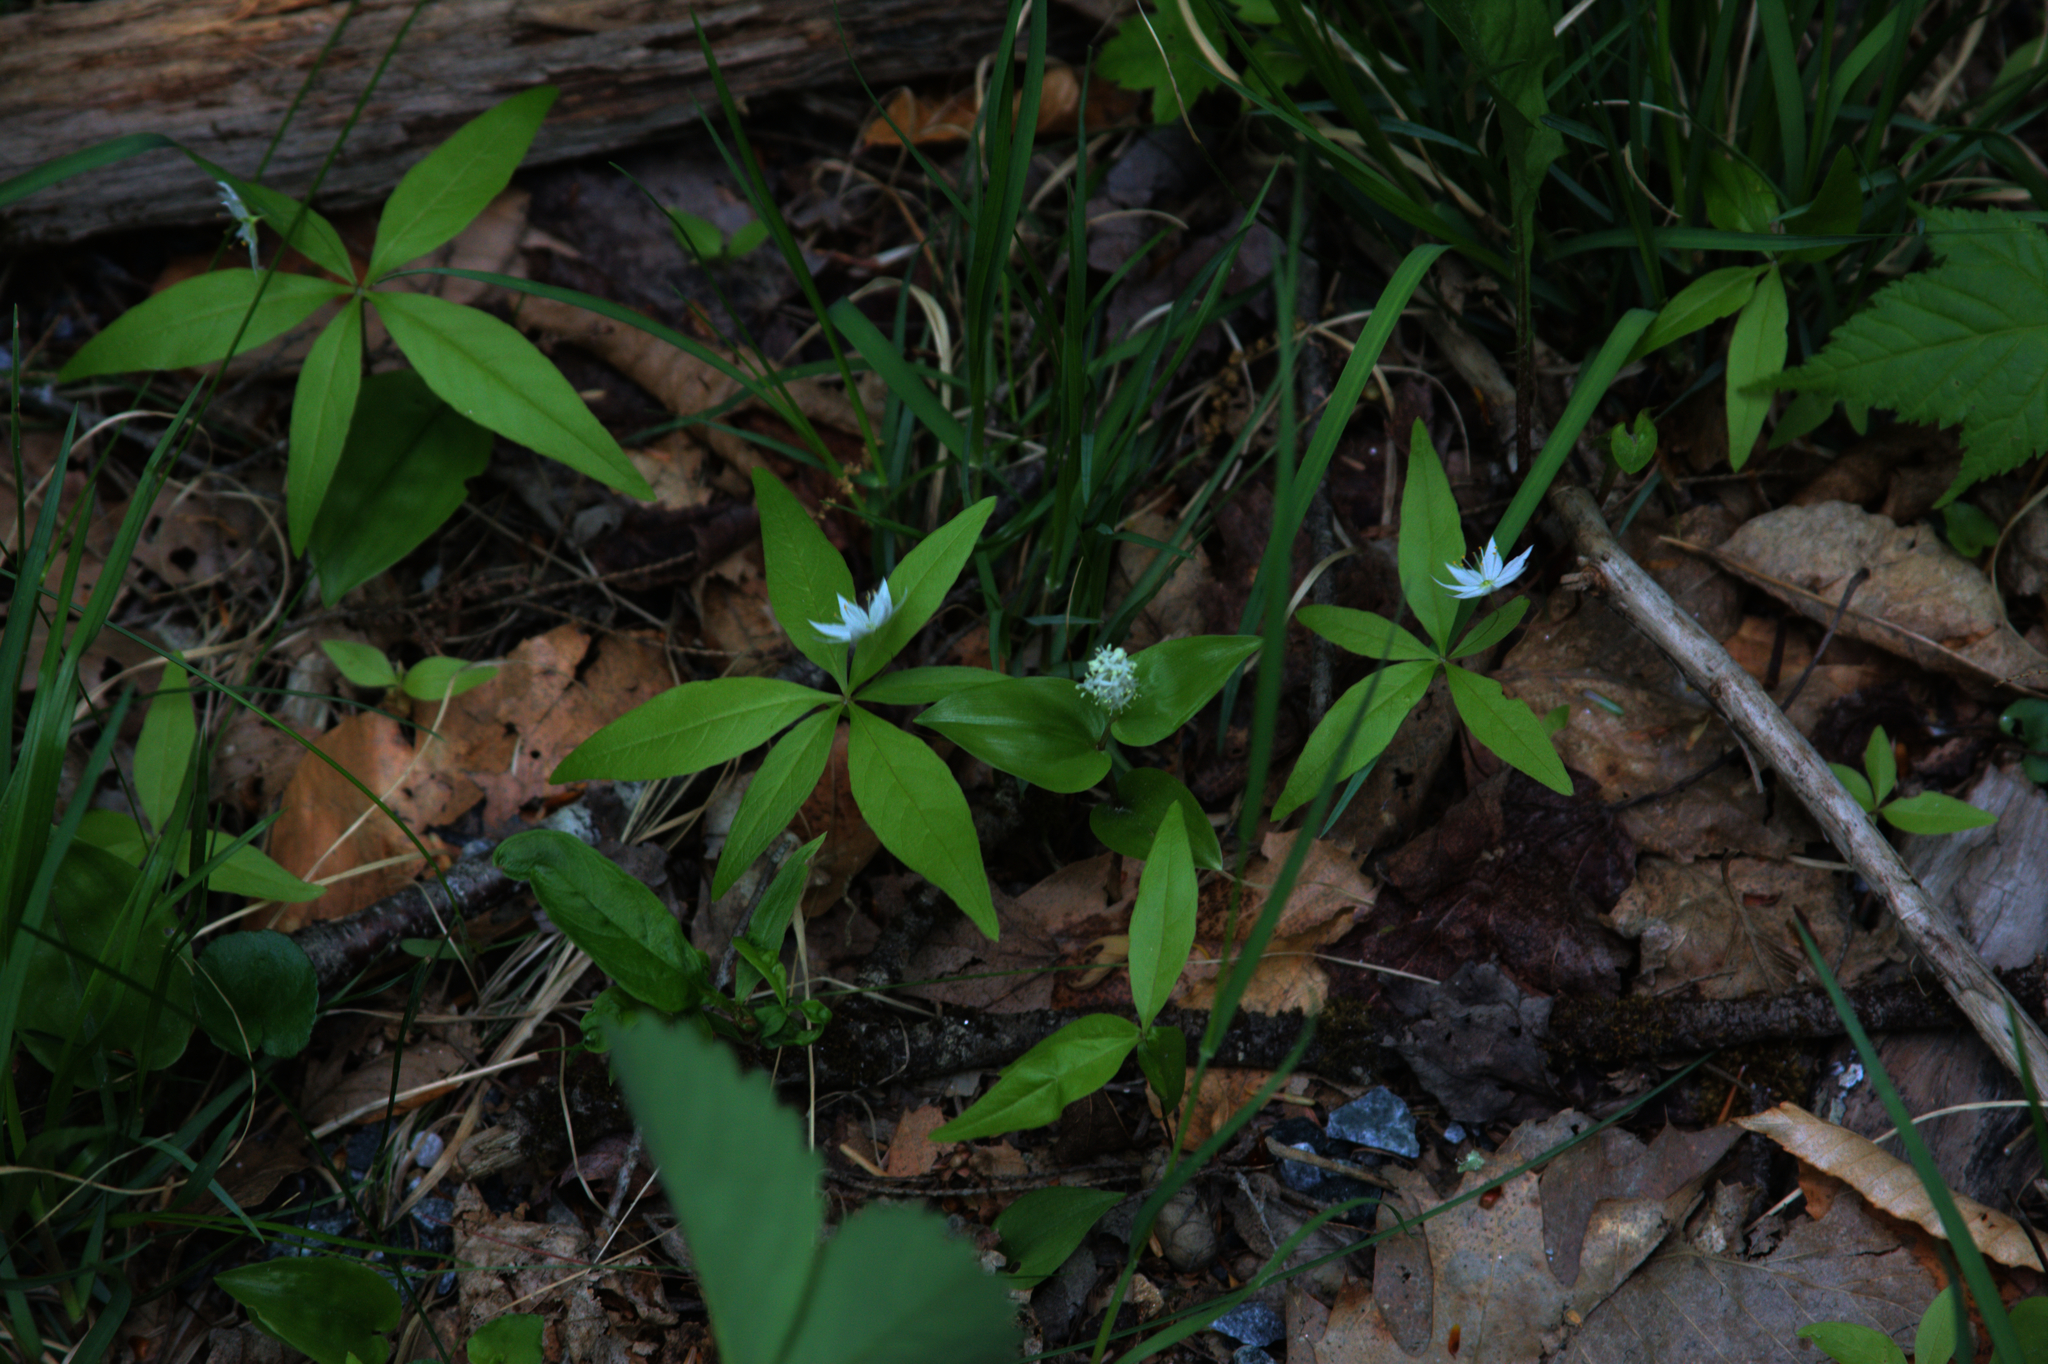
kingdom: Plantae
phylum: Tracheophyta
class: Magnoliopsida
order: Ericales
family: Primulaceae
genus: Lysimachia
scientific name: Lysimachia borealis
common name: American starflower
